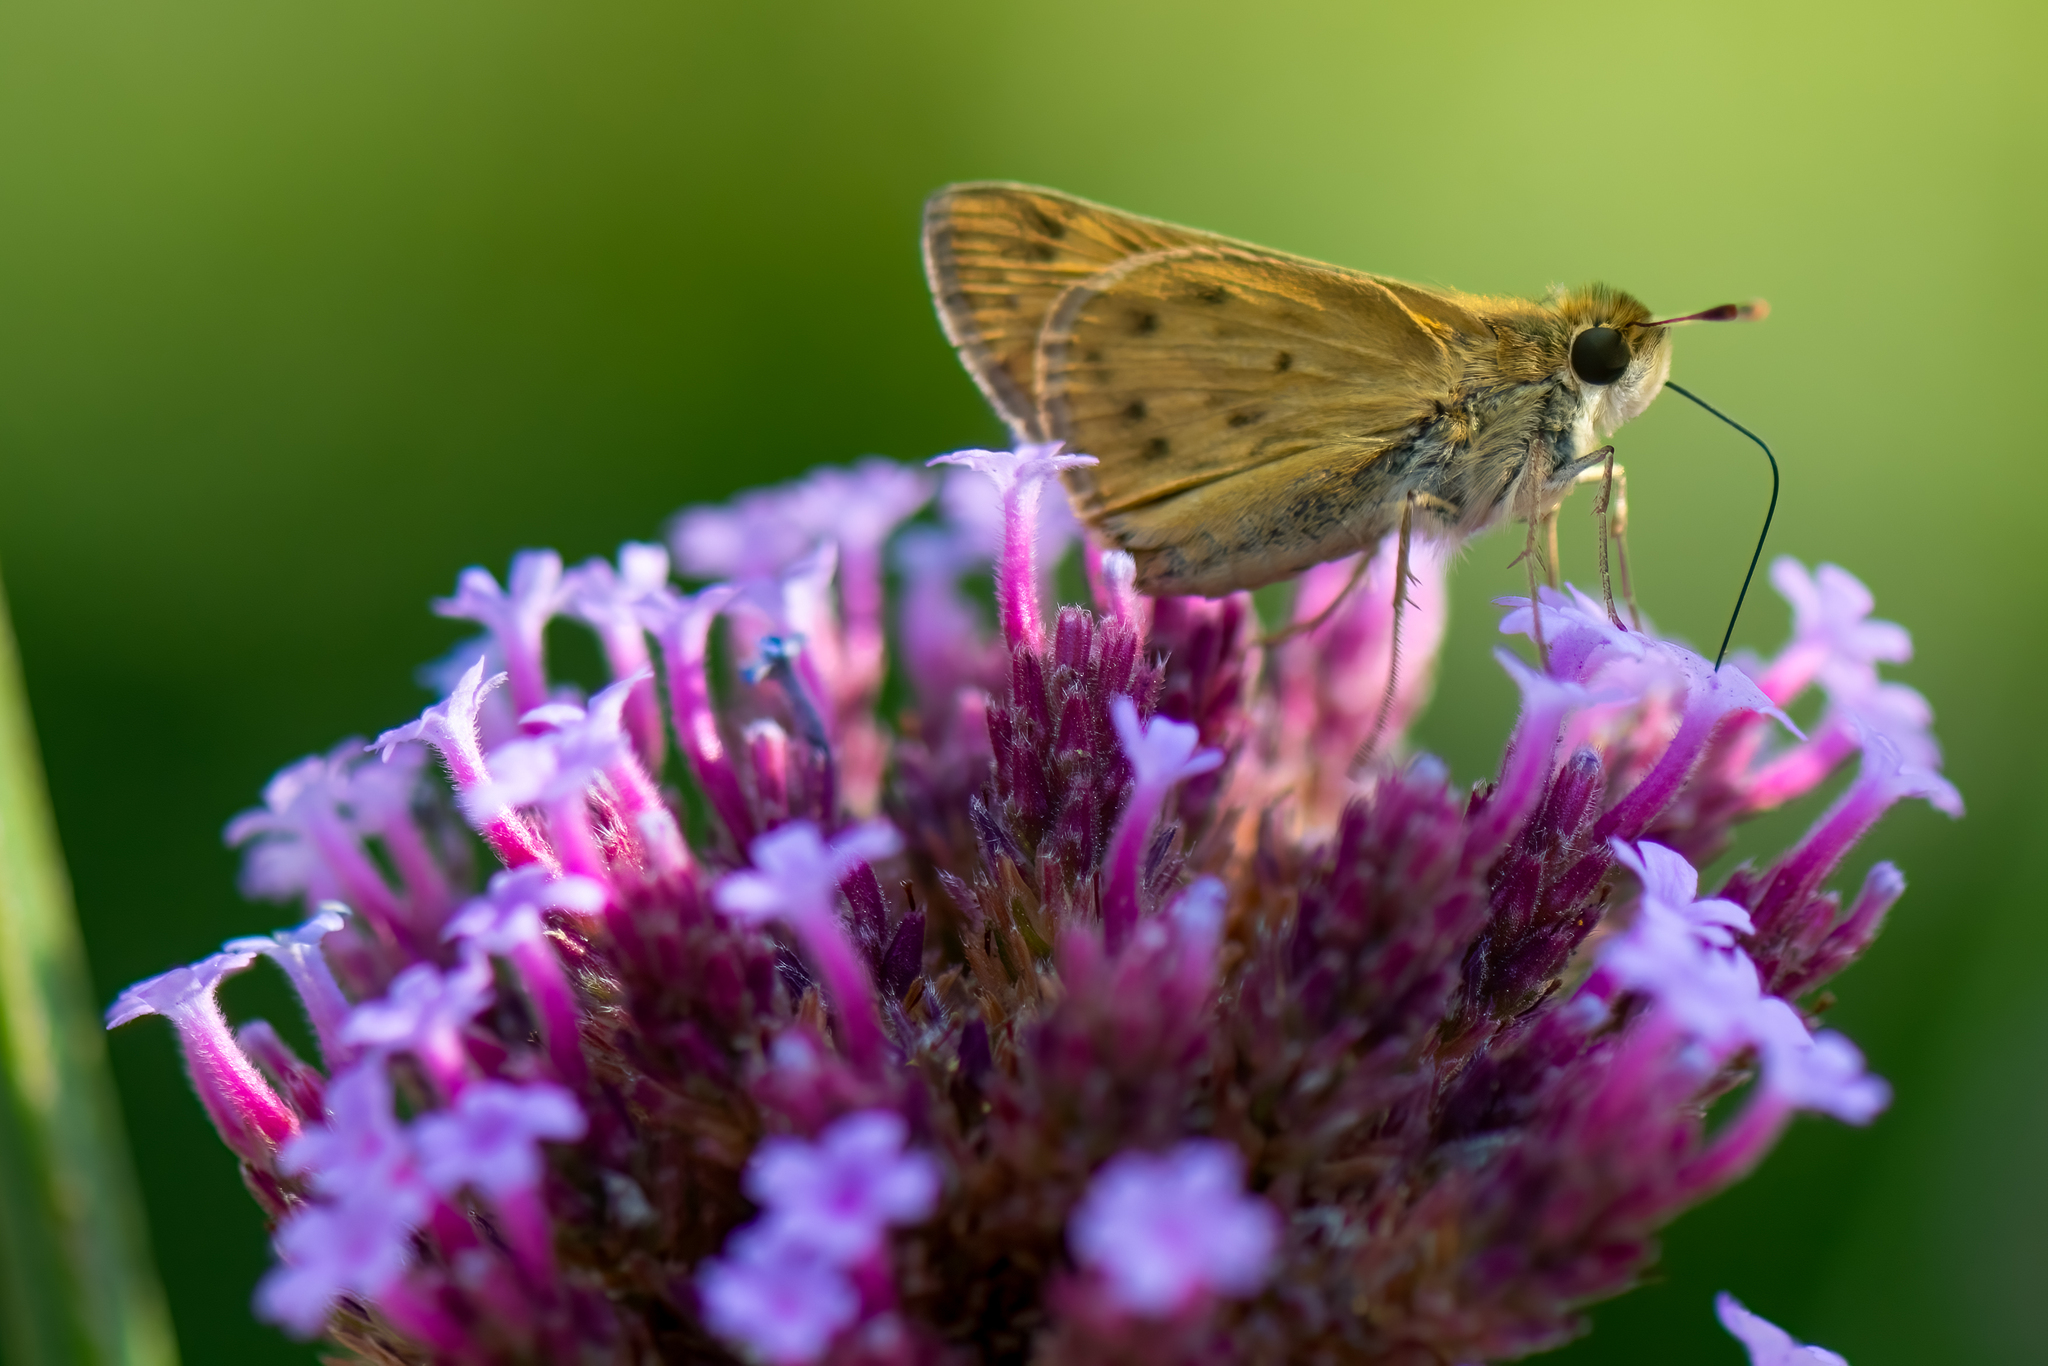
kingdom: Animalia
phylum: Arthropoda
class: Insecta
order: Lepidoptera
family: Hesperiidae
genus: Hylephila
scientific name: Hylephila phyleus
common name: Fiery skipper
